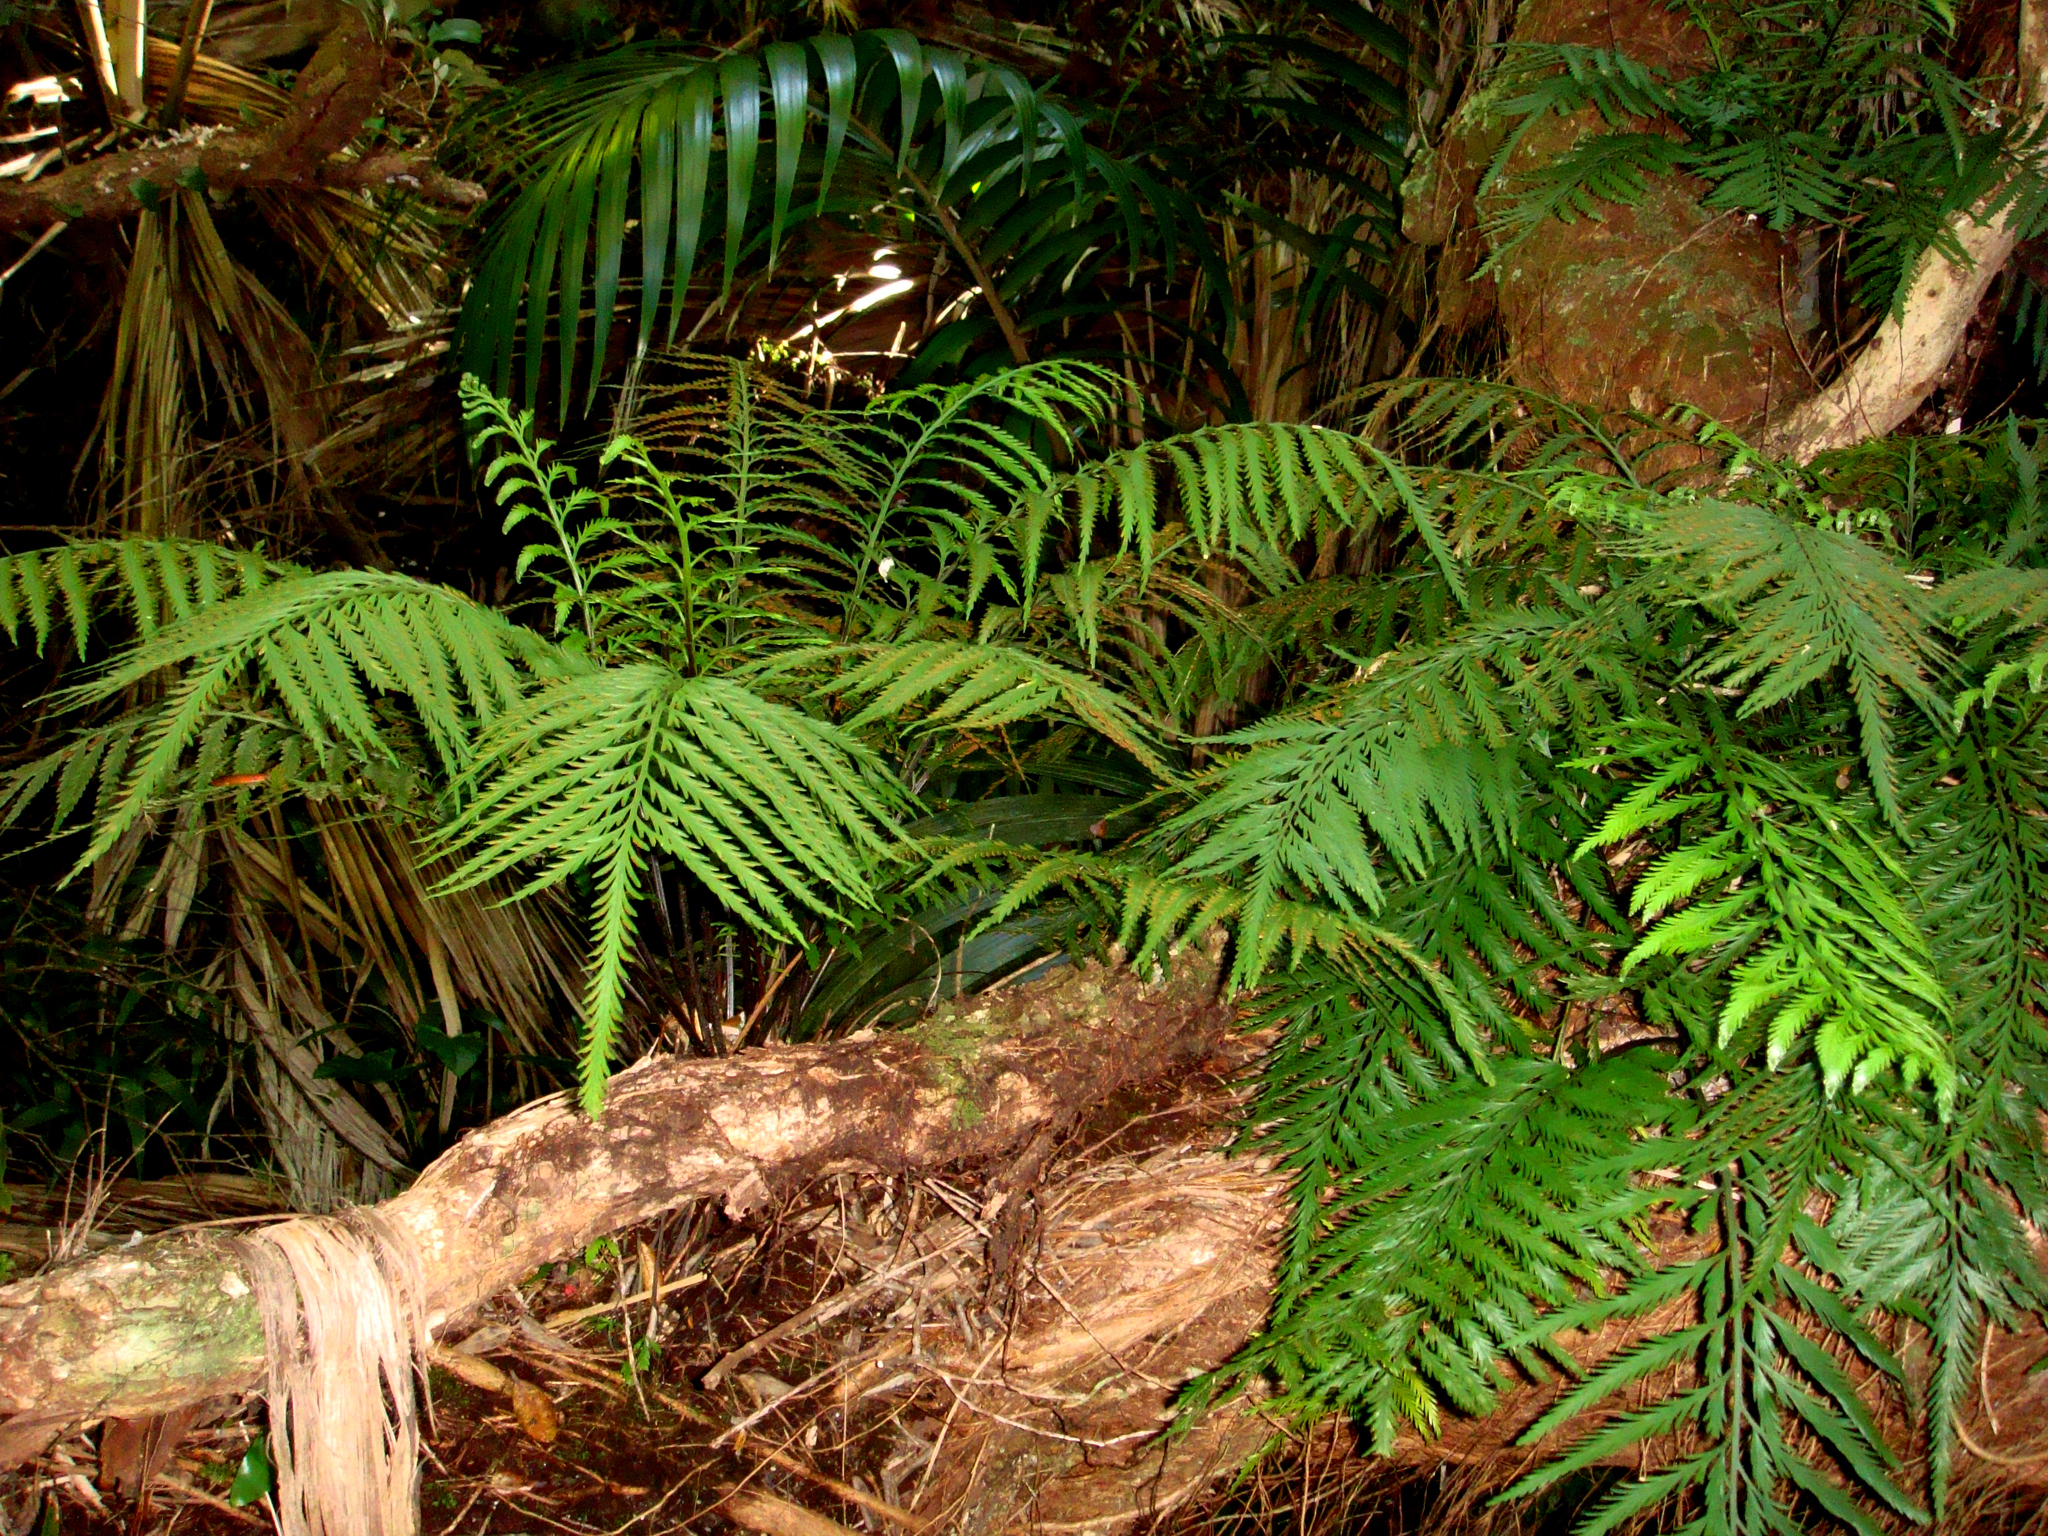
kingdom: Plantae
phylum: Tracheophyta
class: Polypodiopsida
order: Polypodiales
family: Aspleniaceae
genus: Asplenium
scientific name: Asplenium haurakiense
